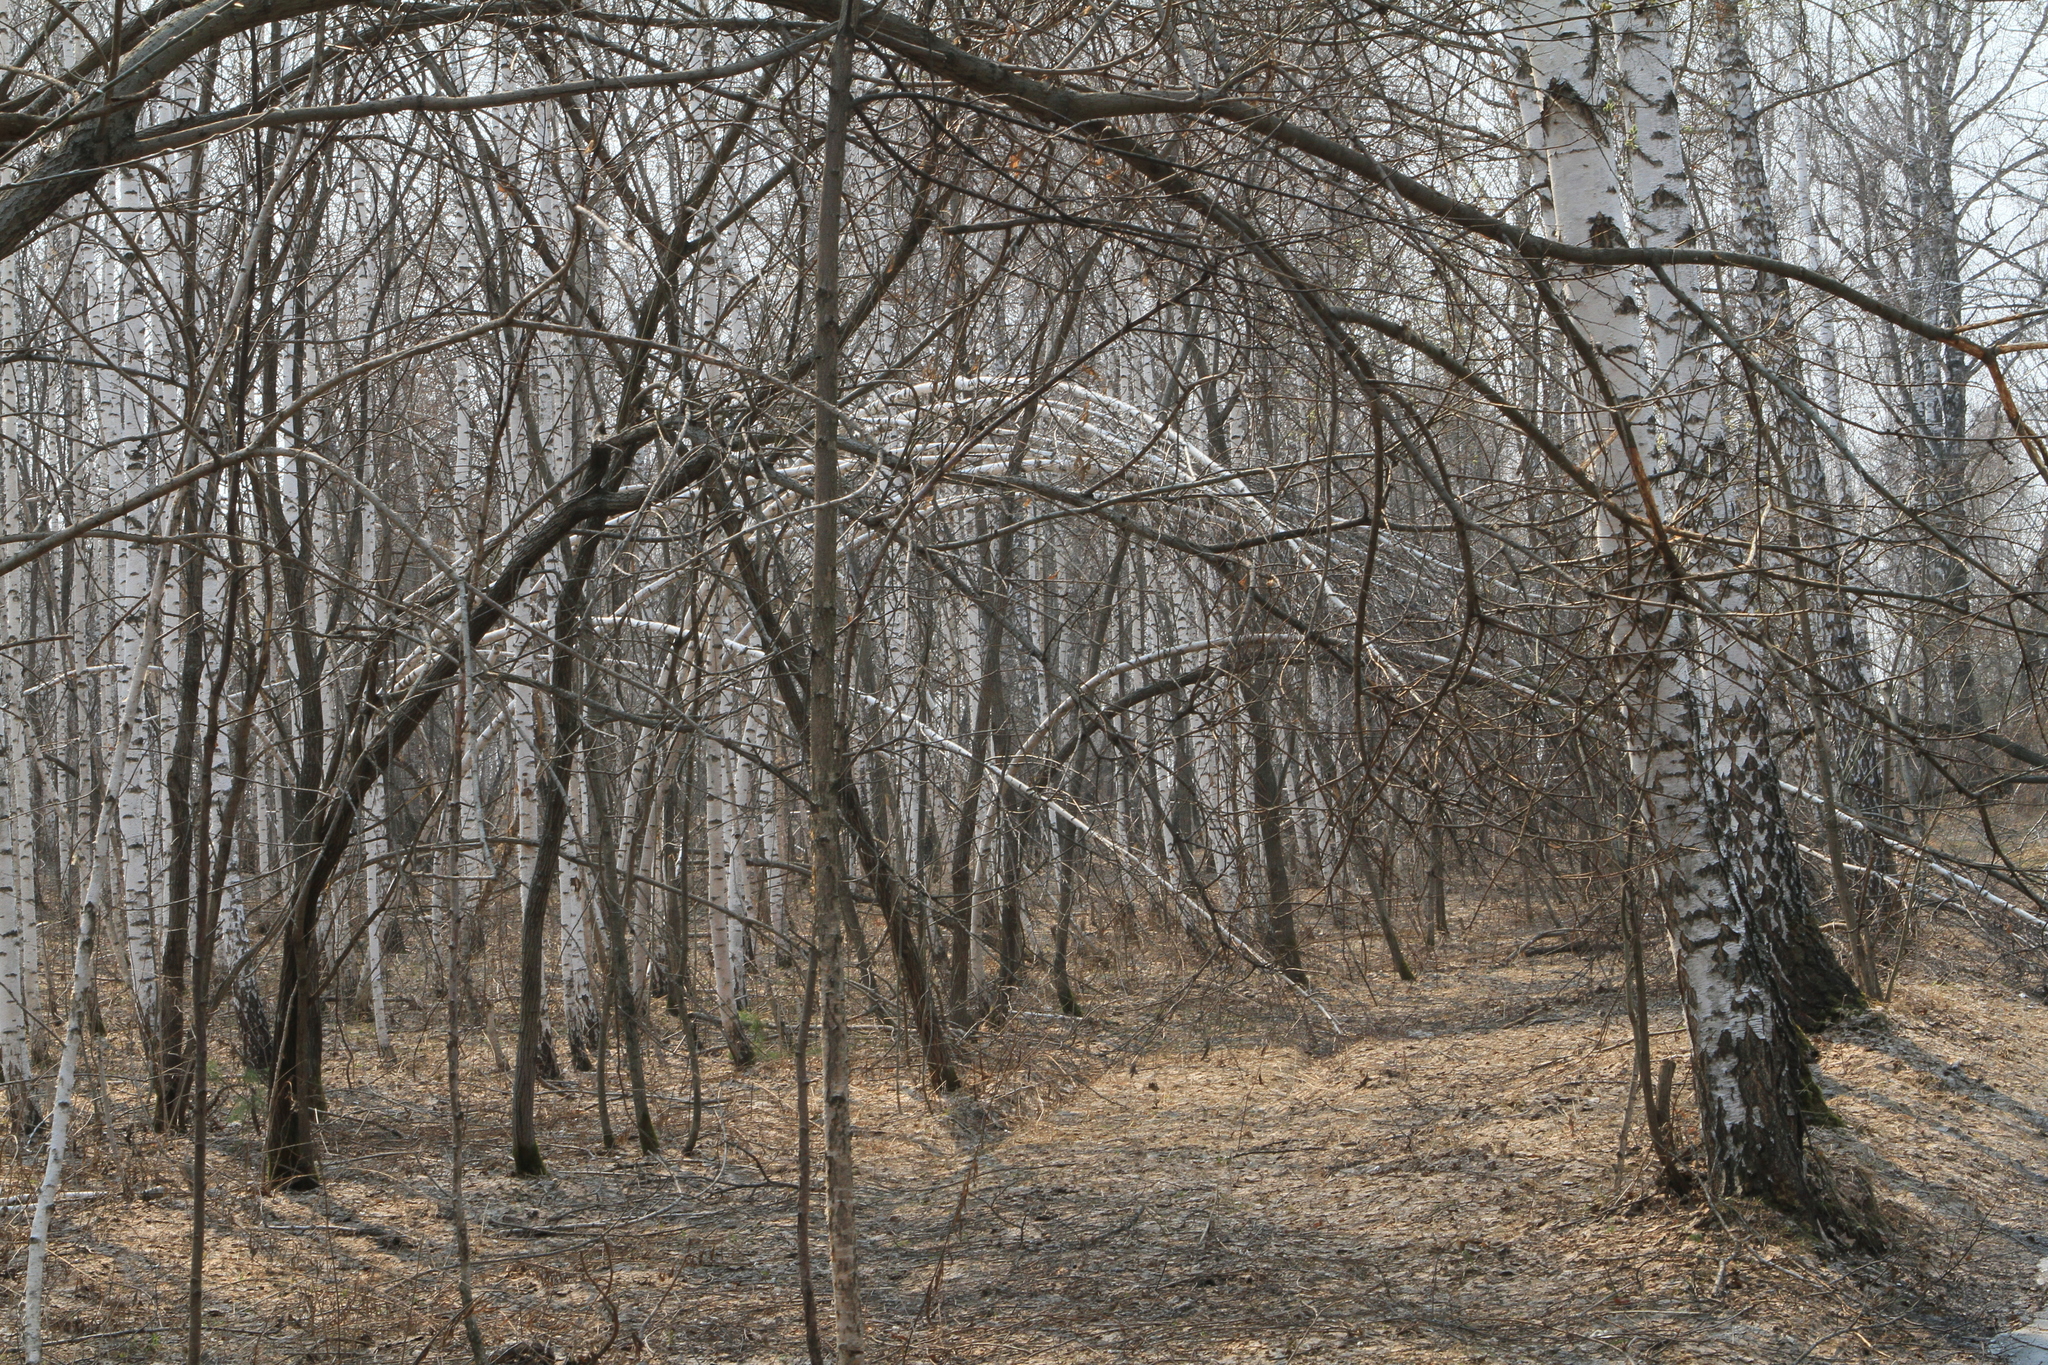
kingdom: Plantae
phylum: Tracheophyta
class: Magnoliopsida
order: Fagales
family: Betulaceae
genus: Betula
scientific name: Betula pendula
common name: Silver birch
